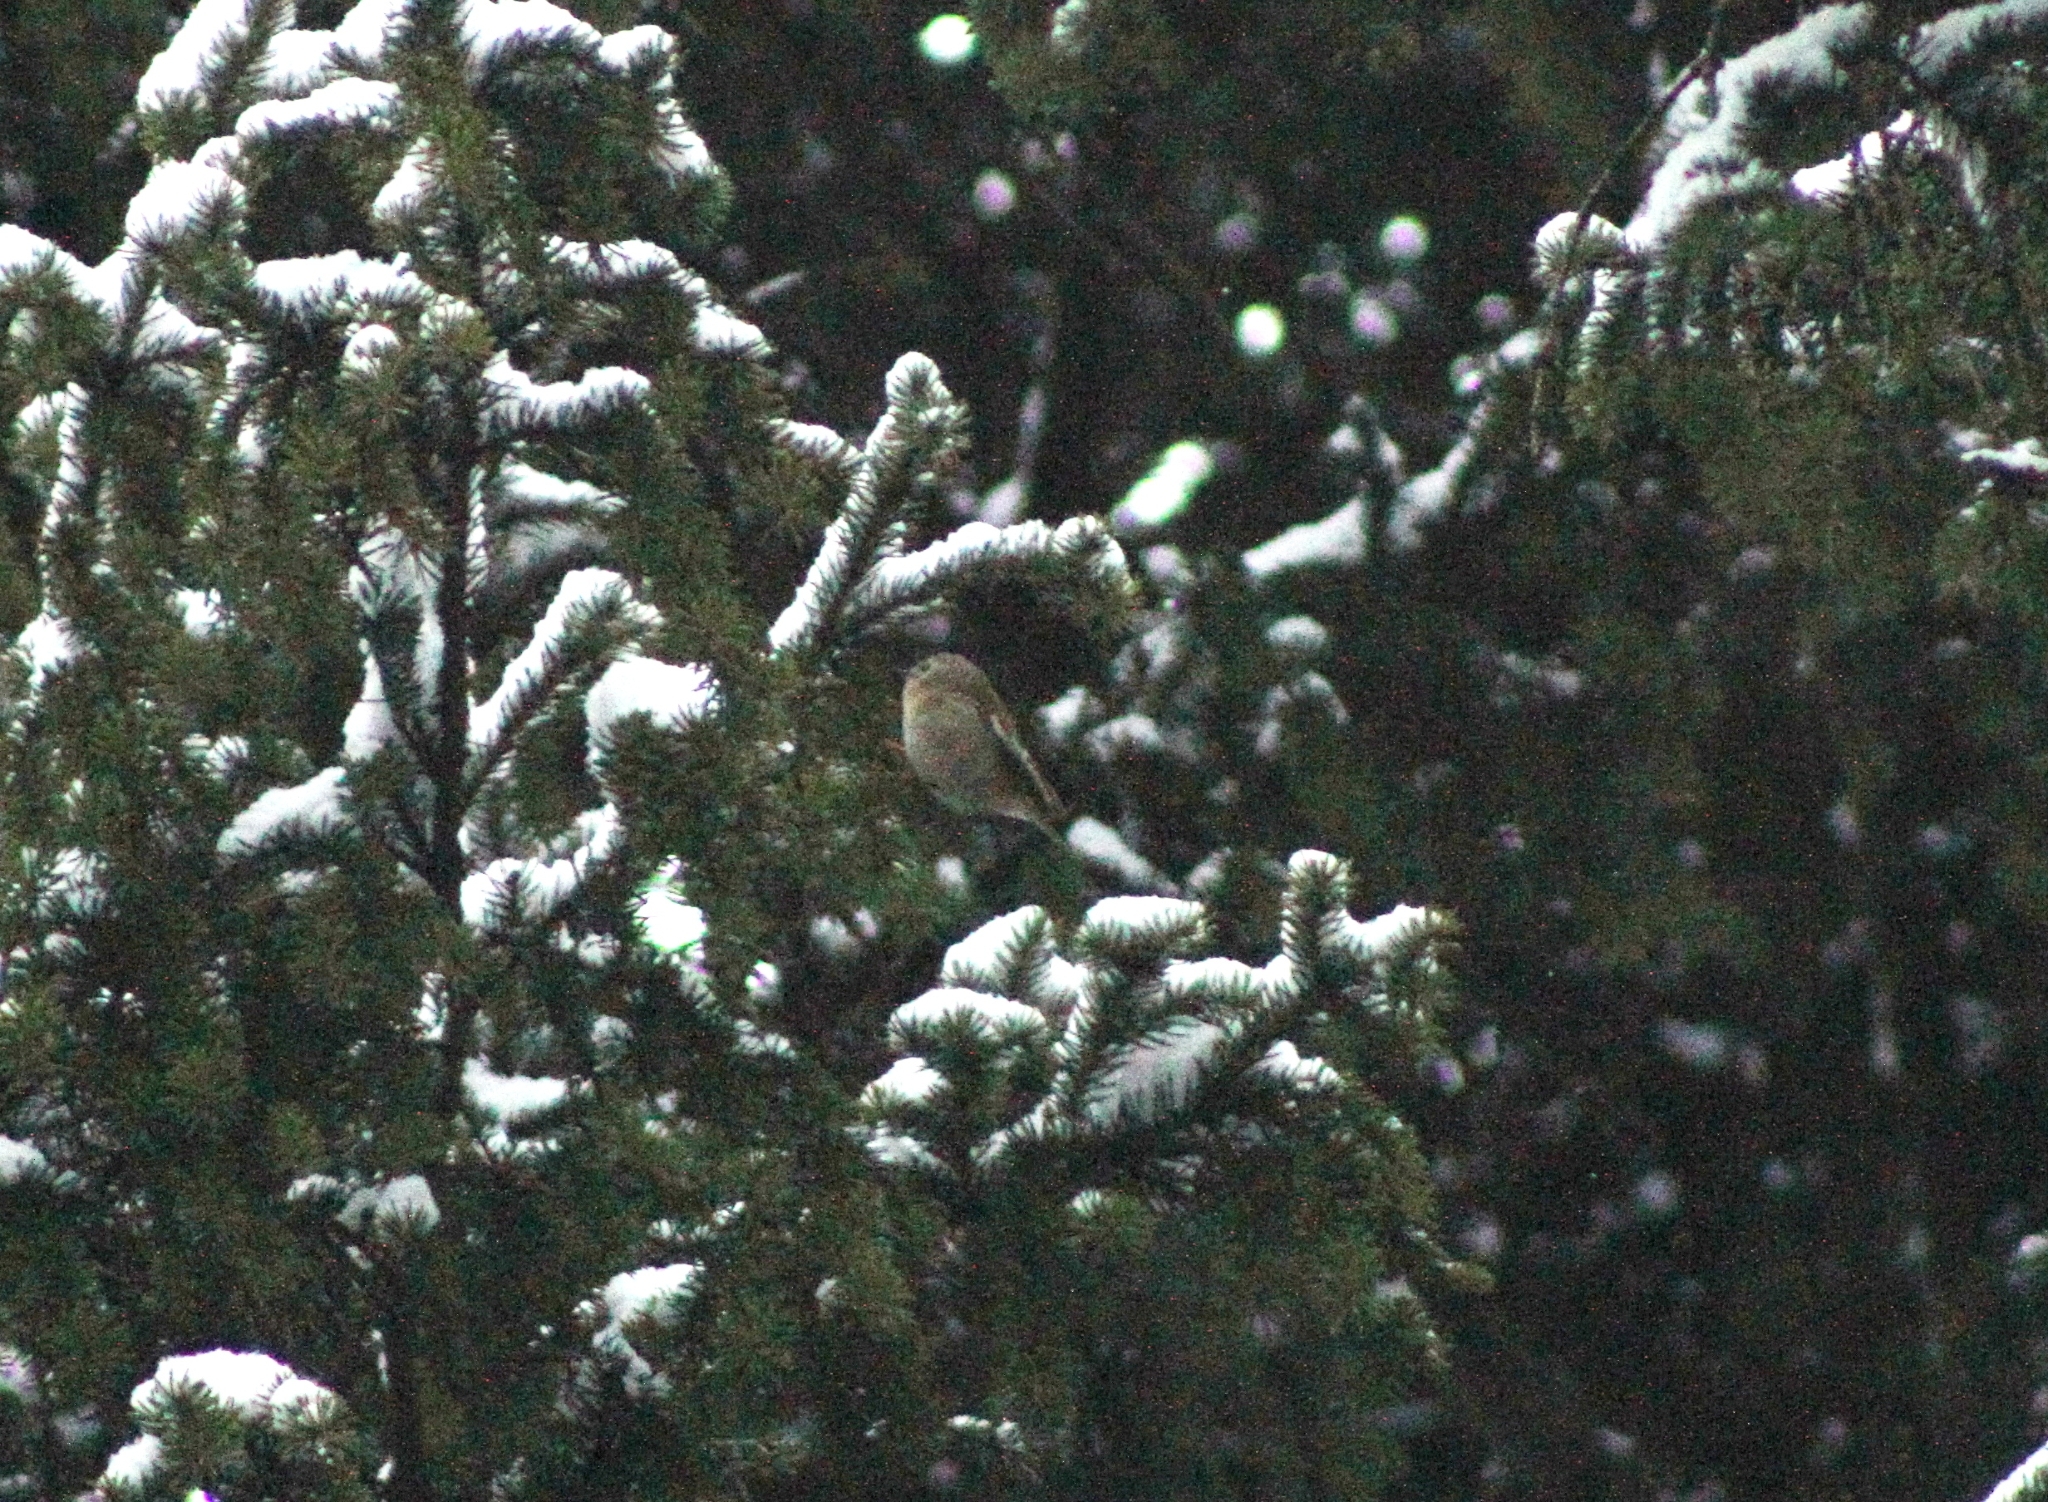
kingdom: Animalia
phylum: Chordata
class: Aves
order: Passeriformes
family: Regulidae
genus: Regulus
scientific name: Regulus regulus
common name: Goldcrest
